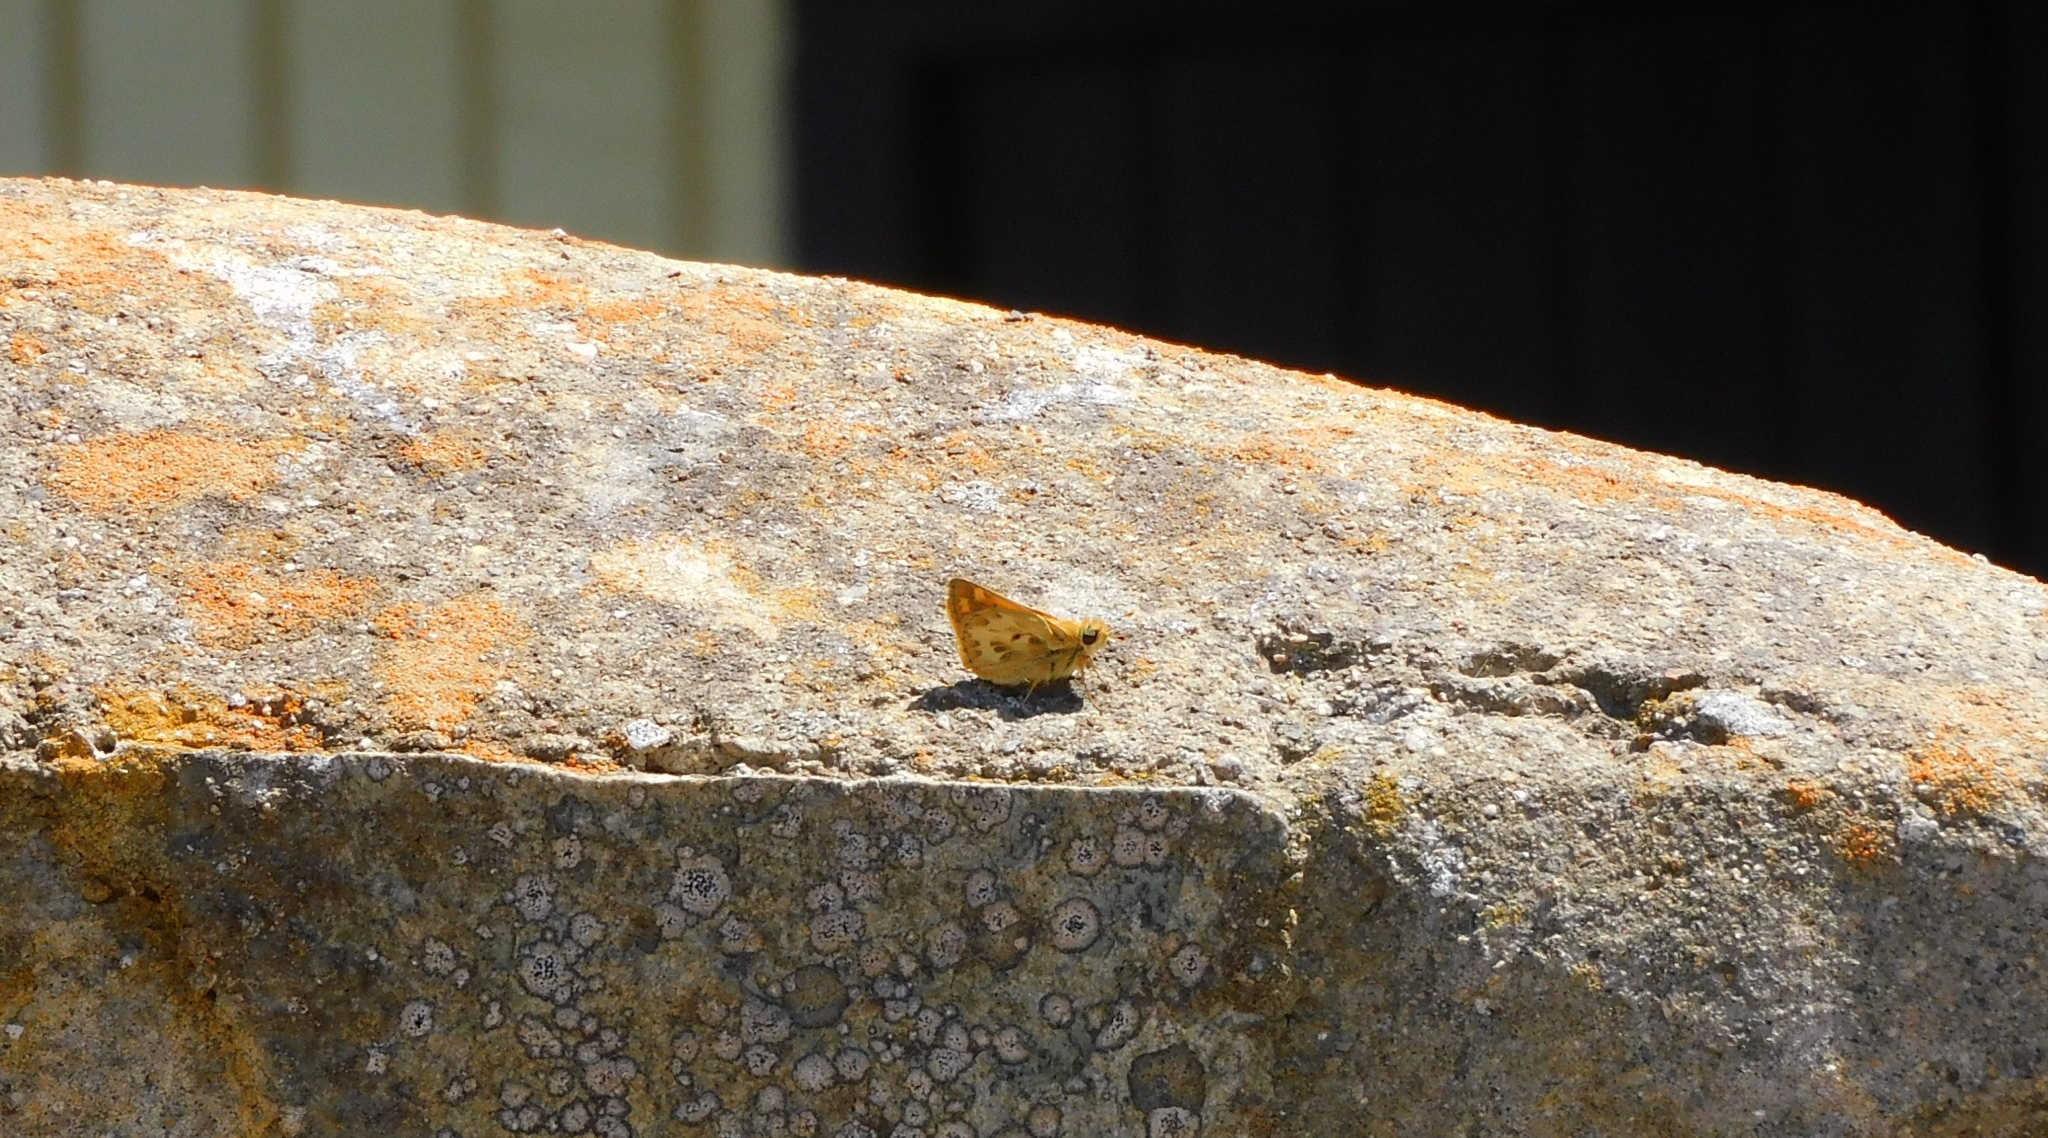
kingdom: Animalia
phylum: Arthropoda
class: Insecta
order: Lepidoptera
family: Hesperiidae
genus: Hylephila
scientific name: Hylephila signata
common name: Signata skipper
